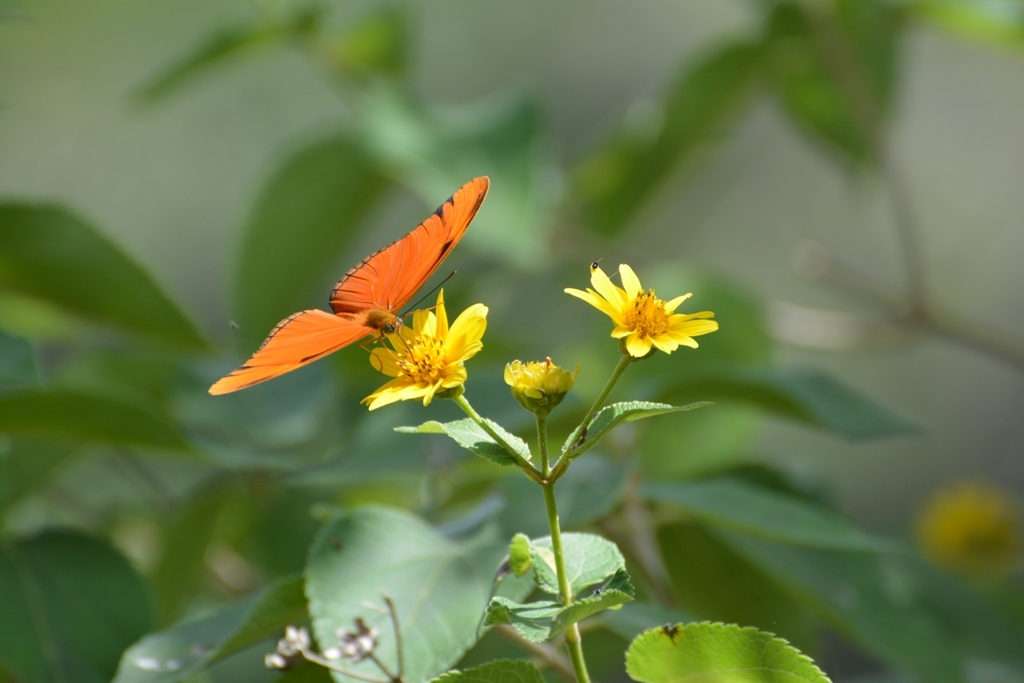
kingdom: Animalia
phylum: Arthropoda
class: Insecta
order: Lepidoptera
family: Nymphalidae
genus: Dryas
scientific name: Dryas iulia
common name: Flambeau
